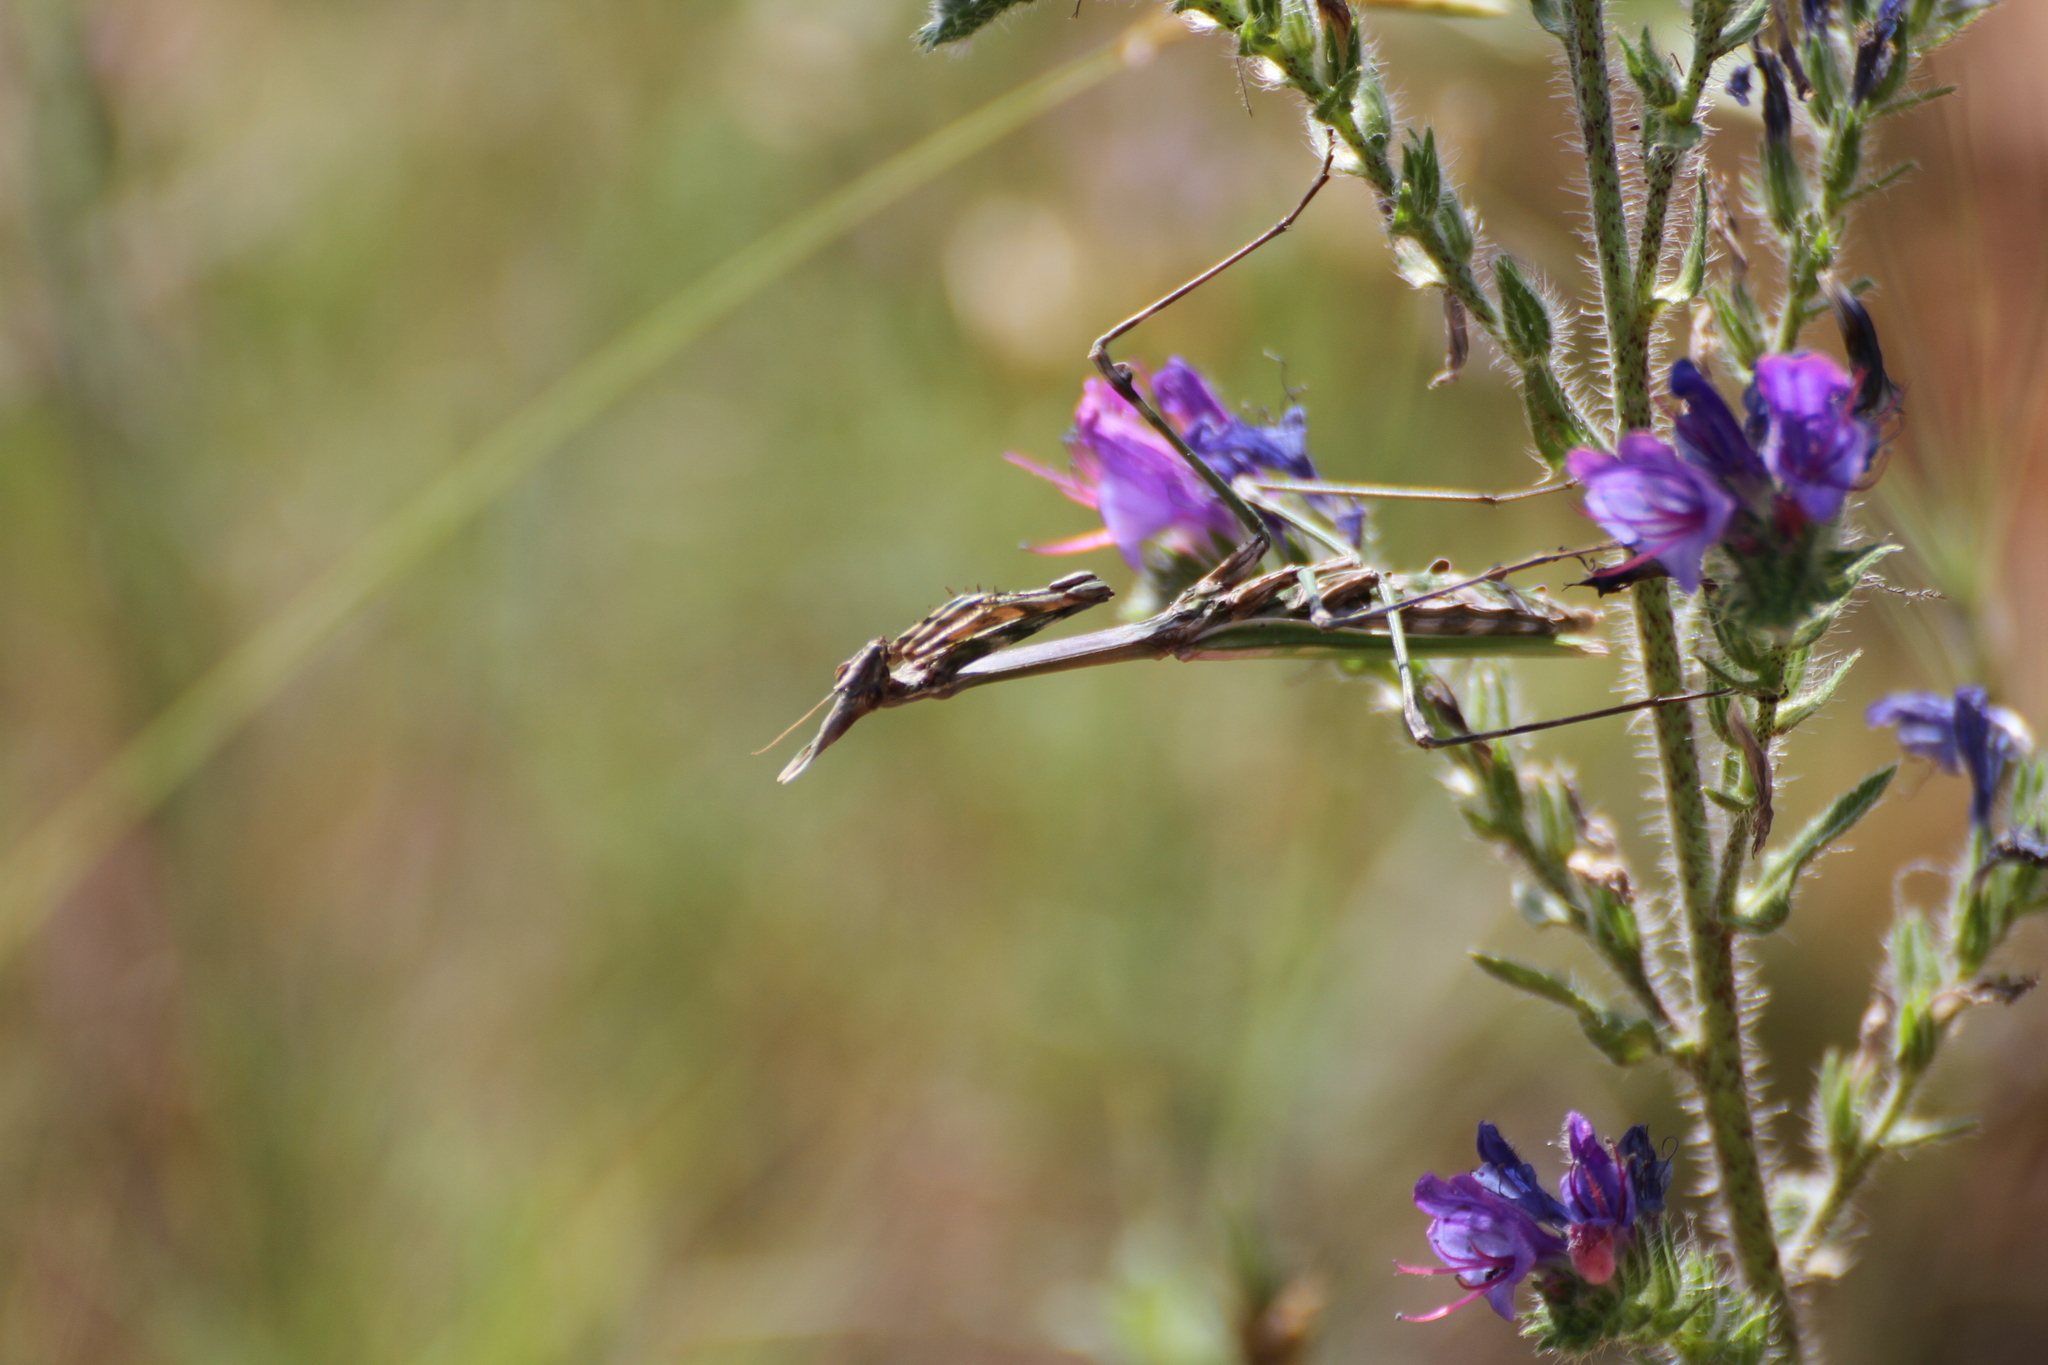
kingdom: Animalia
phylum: Arthropoda
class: Insecta
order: Mantodea
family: Empusidae
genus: Empusa
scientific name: Empusa pennata
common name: Conehead mantis
